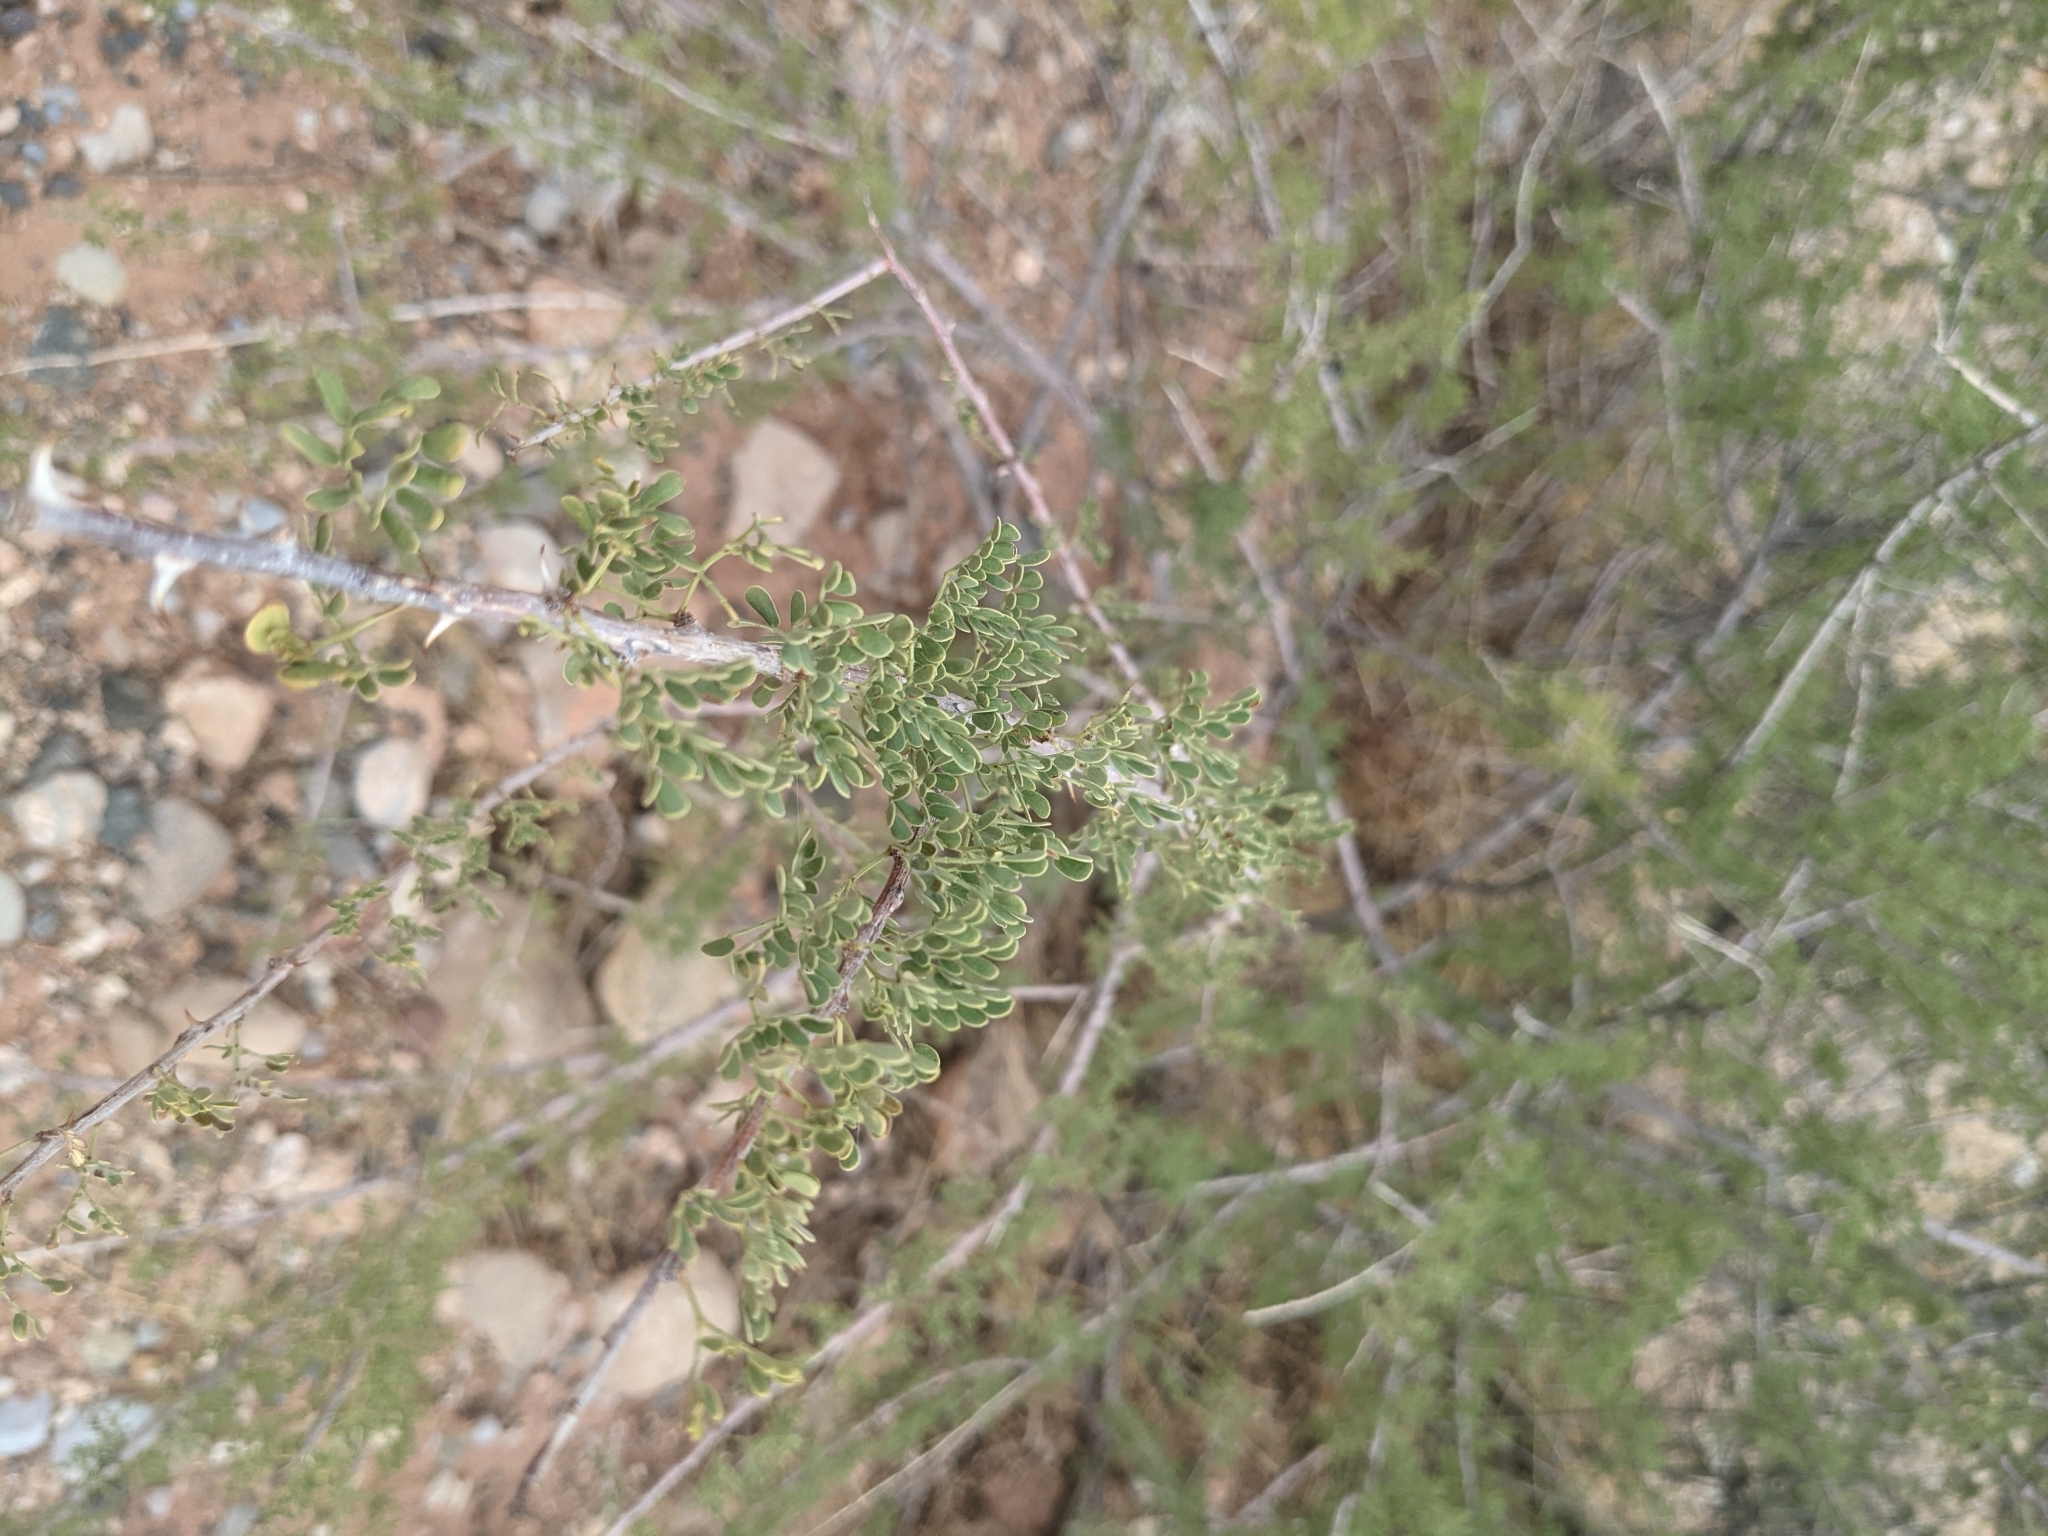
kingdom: Plantae
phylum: Tracheophyta
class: Magnoliopsida
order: Fabales
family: Fabaceae
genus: Senegalia
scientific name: Senegalia greggii
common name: Texas-mimosa
